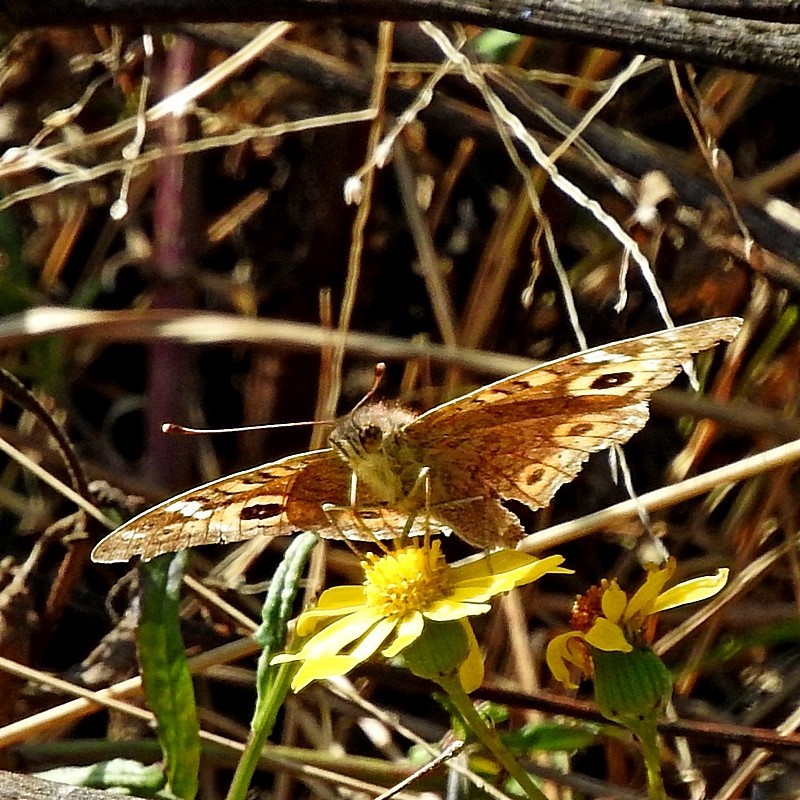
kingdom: Animalia
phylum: Arthropoda
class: Insecta
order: Lepidoptera
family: Nymphalidae
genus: Junonia
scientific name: Junonia villida
